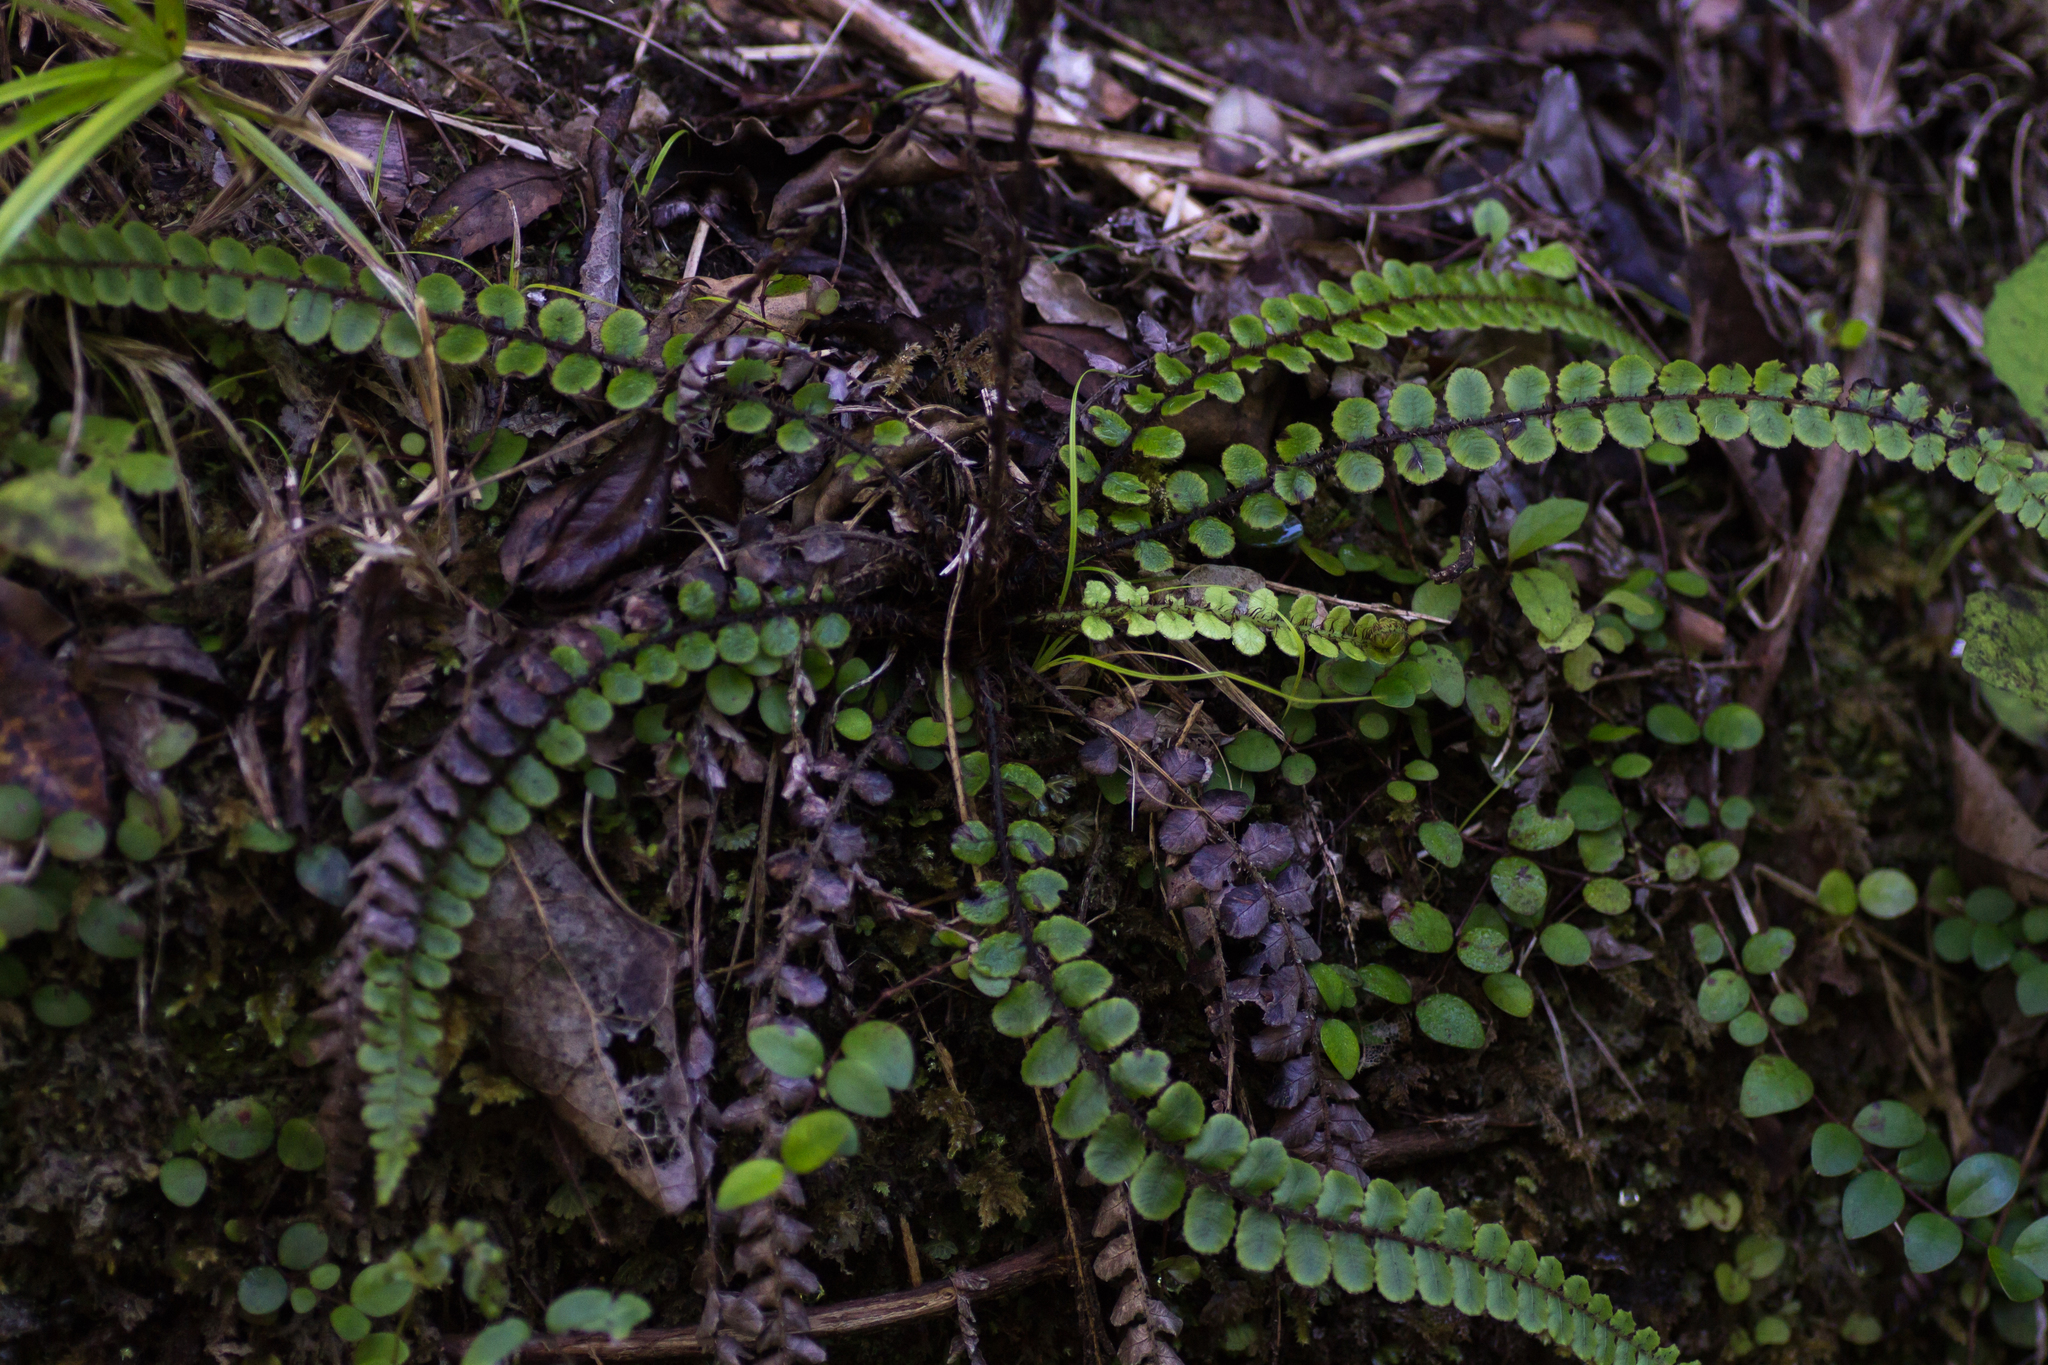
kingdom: Plantae
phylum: Tracheophyta
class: Polypodiopsida
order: Polypodiales
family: Blechnaceae
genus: Cranfillia
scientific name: Cranfillia fluviatilis
